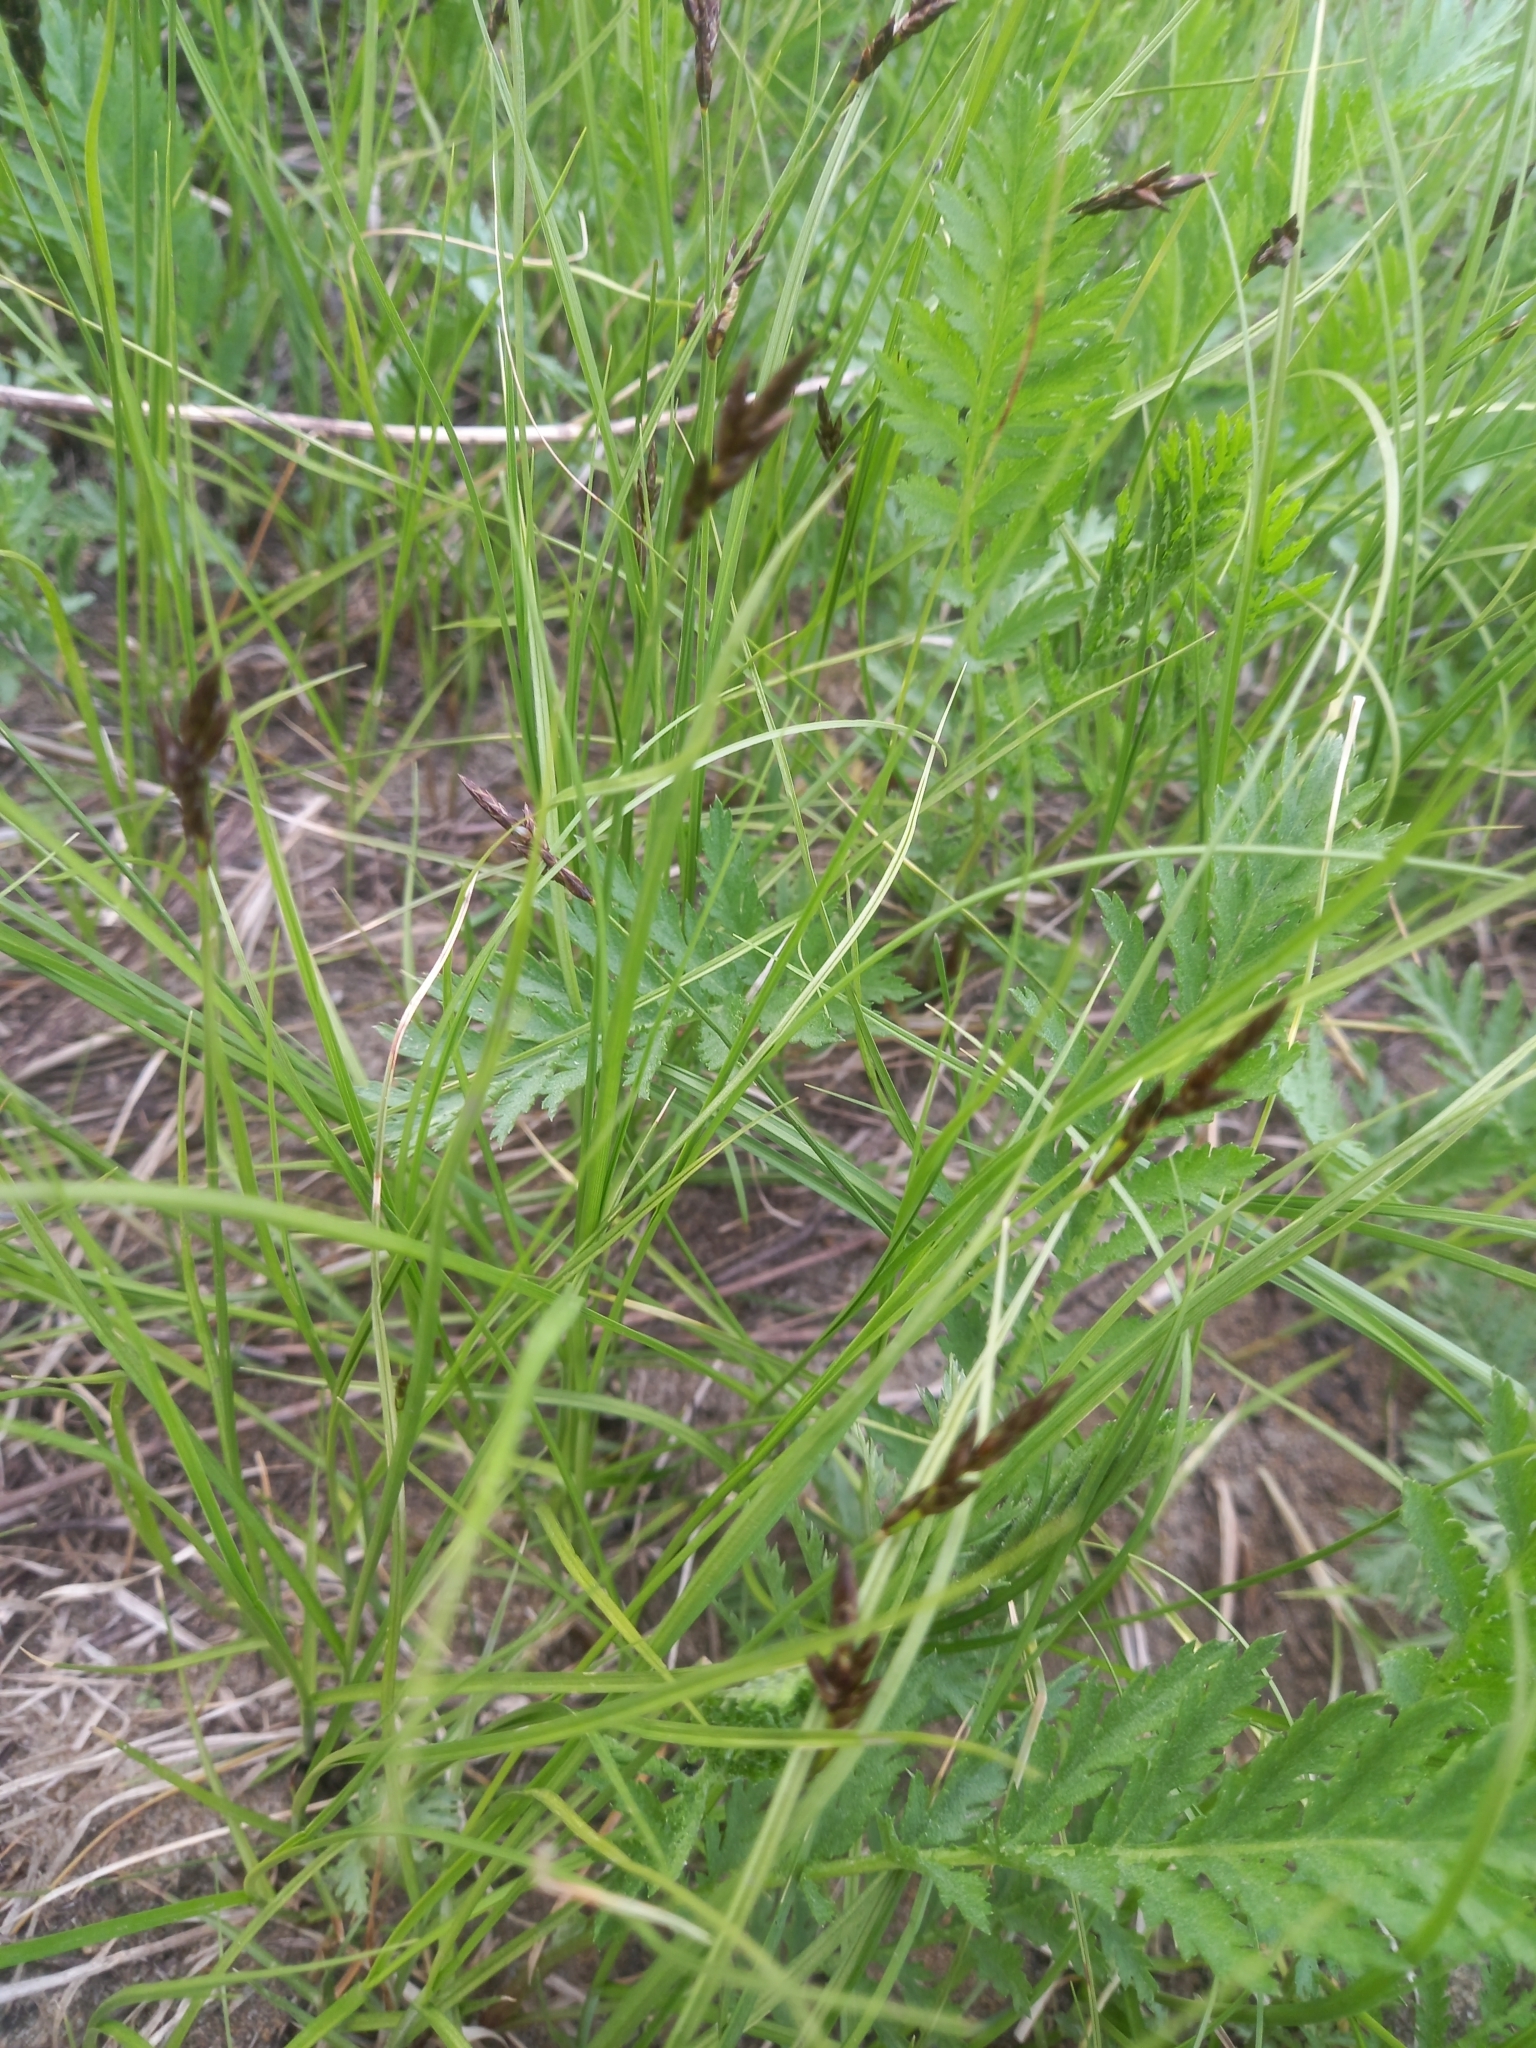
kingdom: Plantae
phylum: Tracheophyta
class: Liliopsida
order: Poales
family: Cyperaceae
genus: Carex
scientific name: Carex praecox
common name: Early sedge
